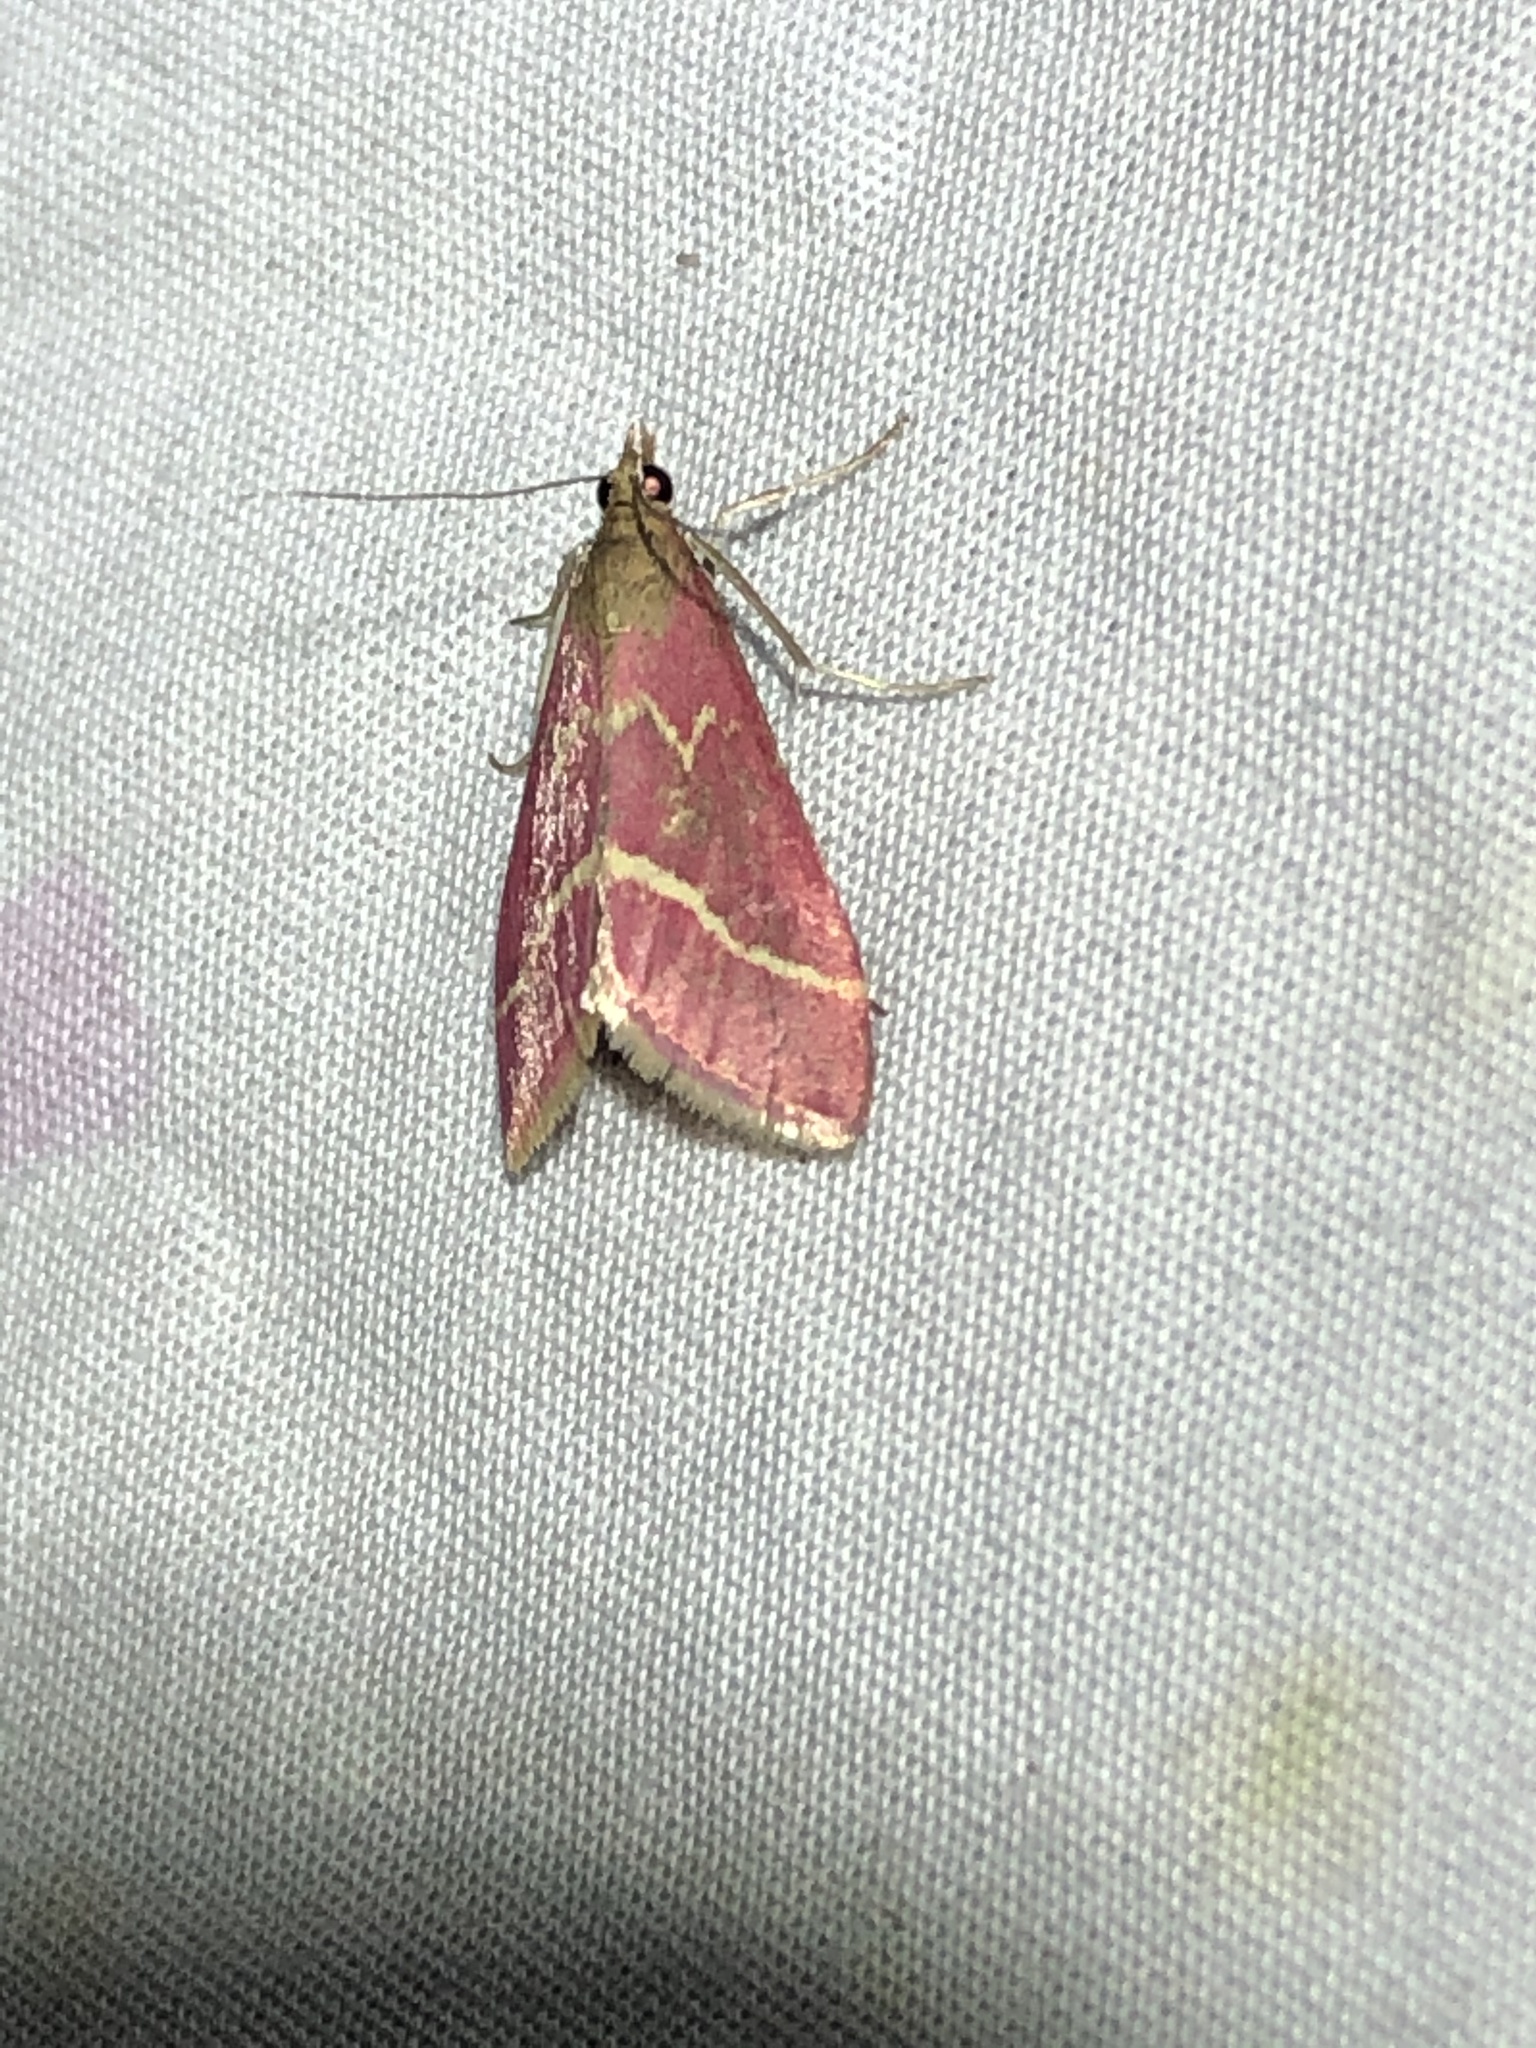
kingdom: Animalia
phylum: Arthropoda
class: Insecta
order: Lepidoptera
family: Crambidae
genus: Pyrausta
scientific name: Pyrausta volupialis
